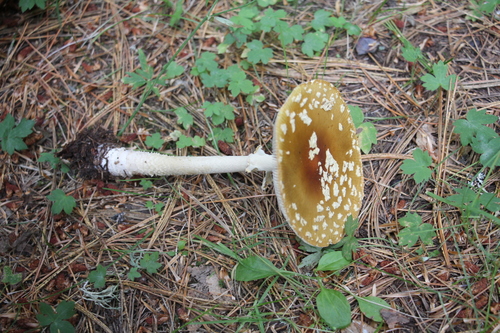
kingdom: Fungi
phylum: Basidiomycota
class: Agaricomycetes
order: Agaricales
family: Amanitaceae
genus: Amanita
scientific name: Amanita regalis
